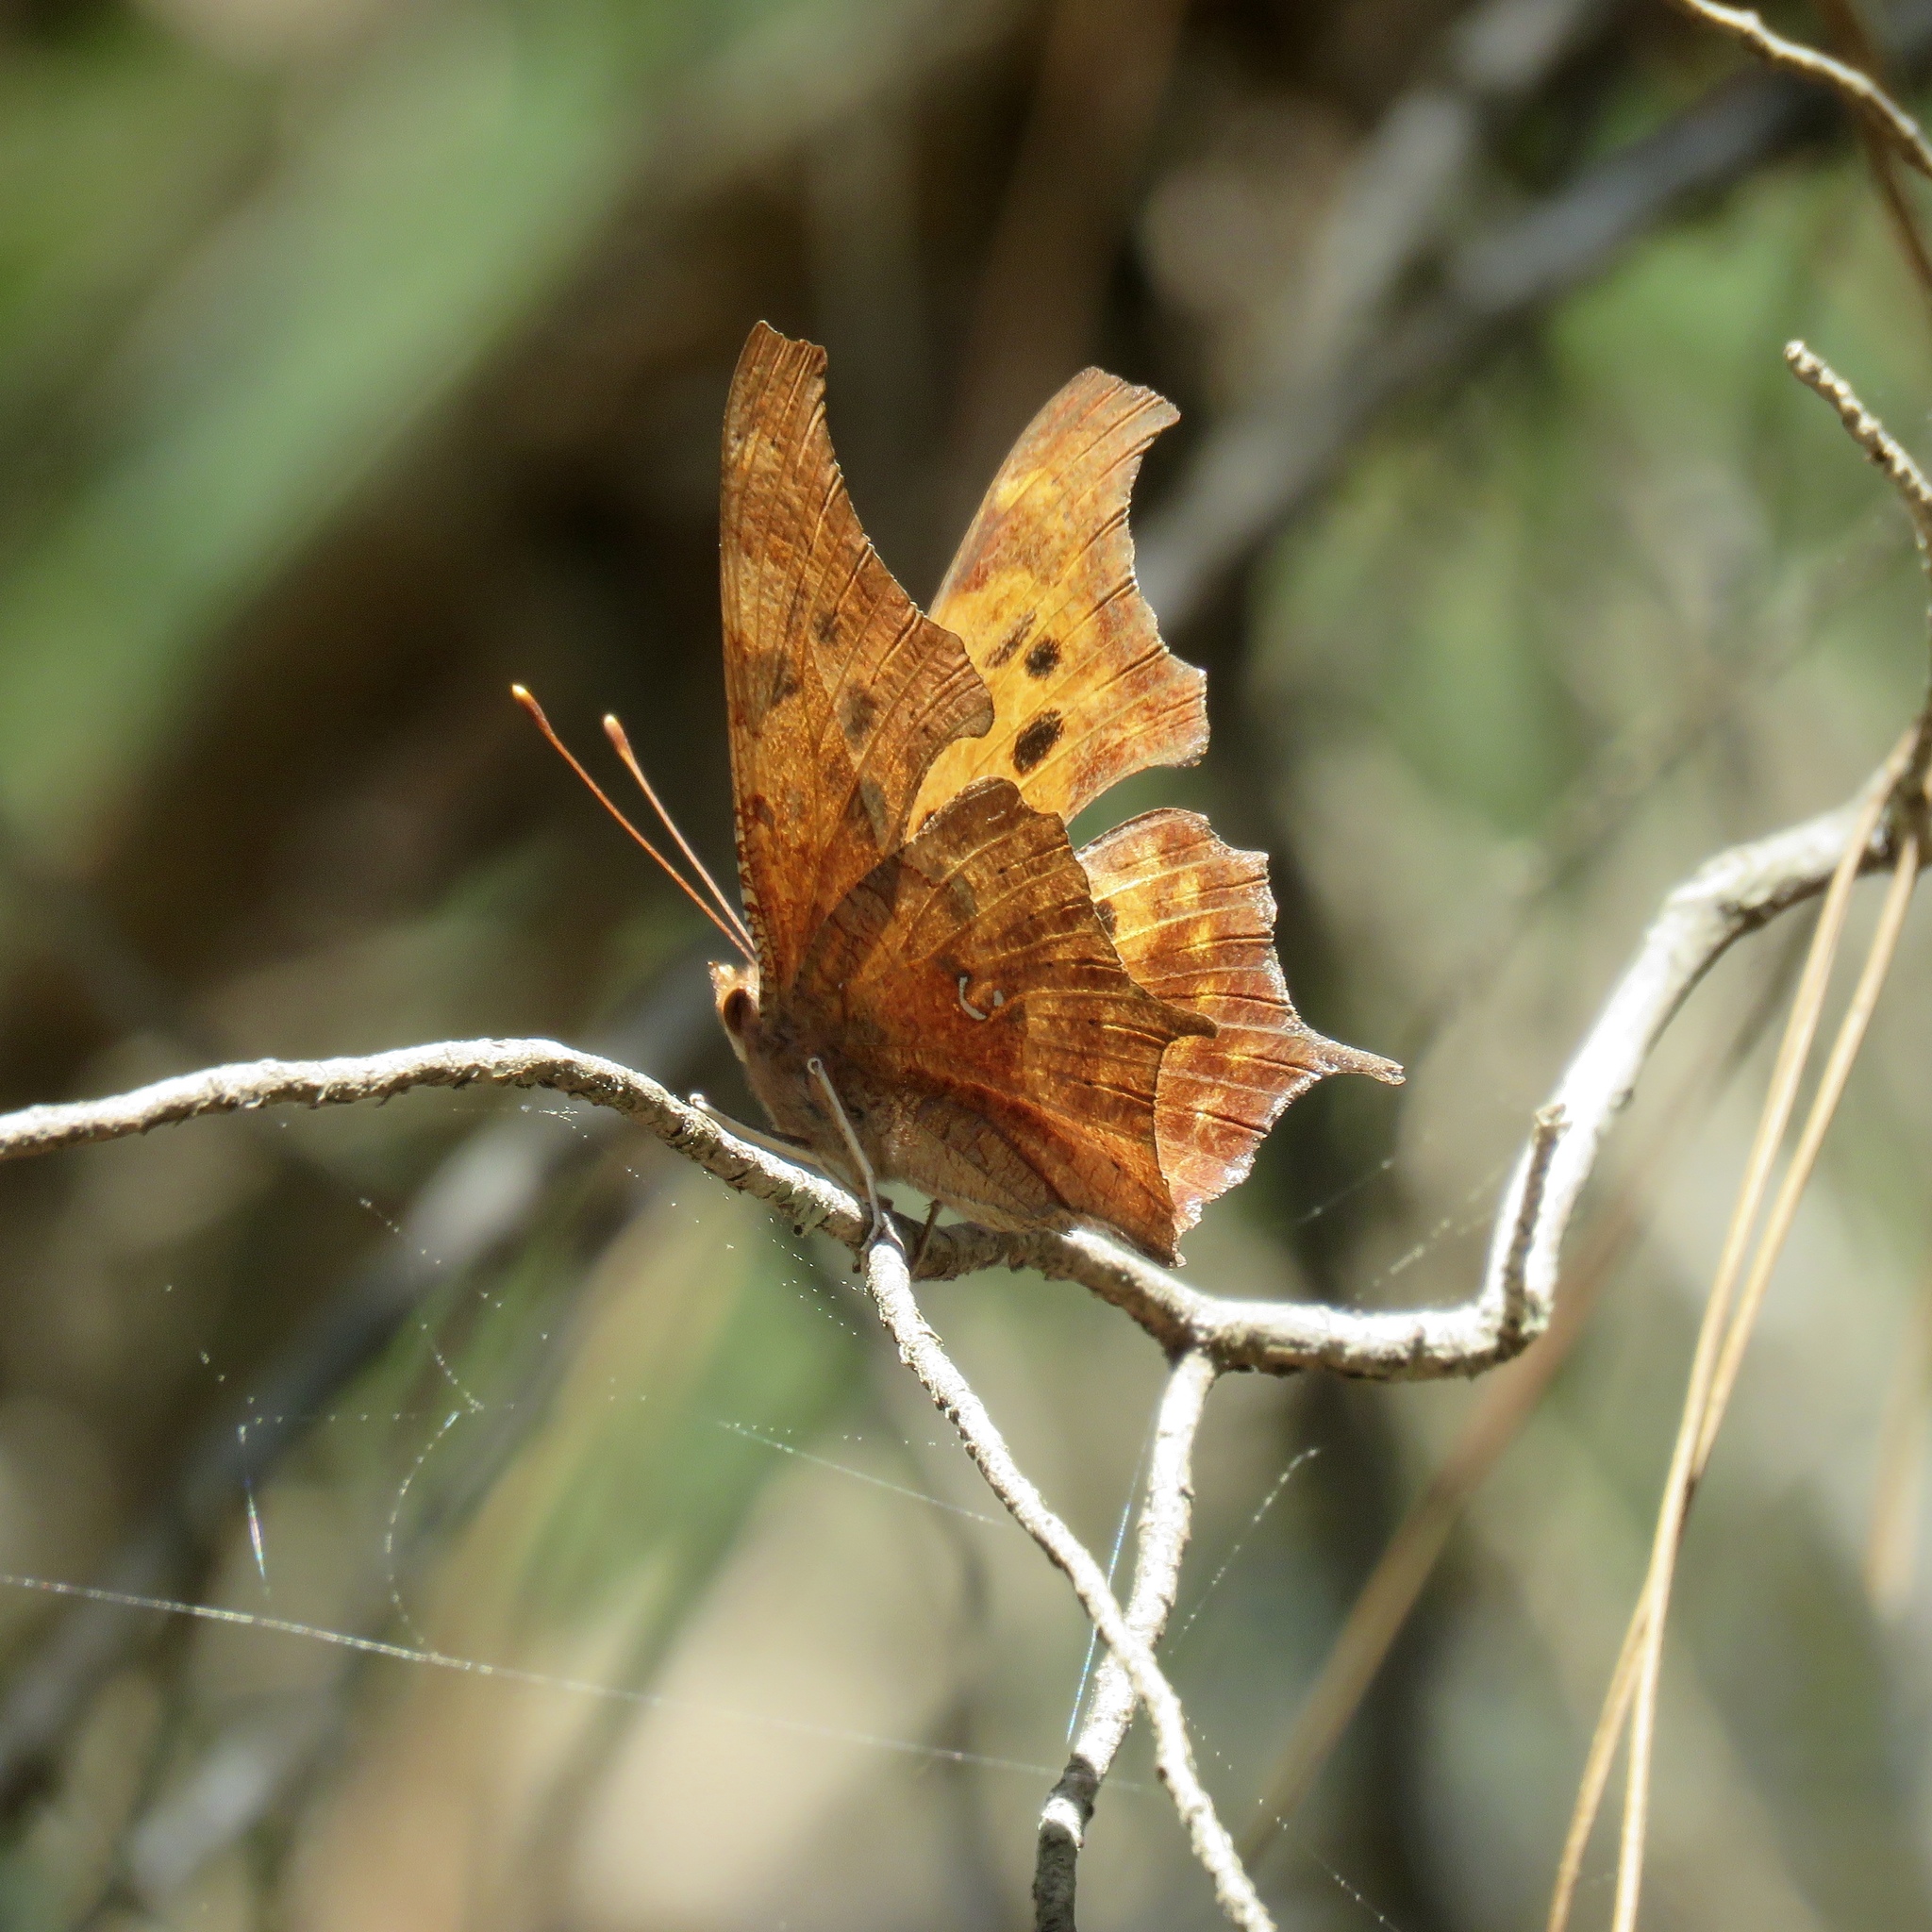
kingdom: Animalia
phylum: Arthropoda
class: Insecta
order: Lepidoptera
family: Nymphalidae
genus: Polygonia
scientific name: Polygonia interrogationis
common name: Question mark
